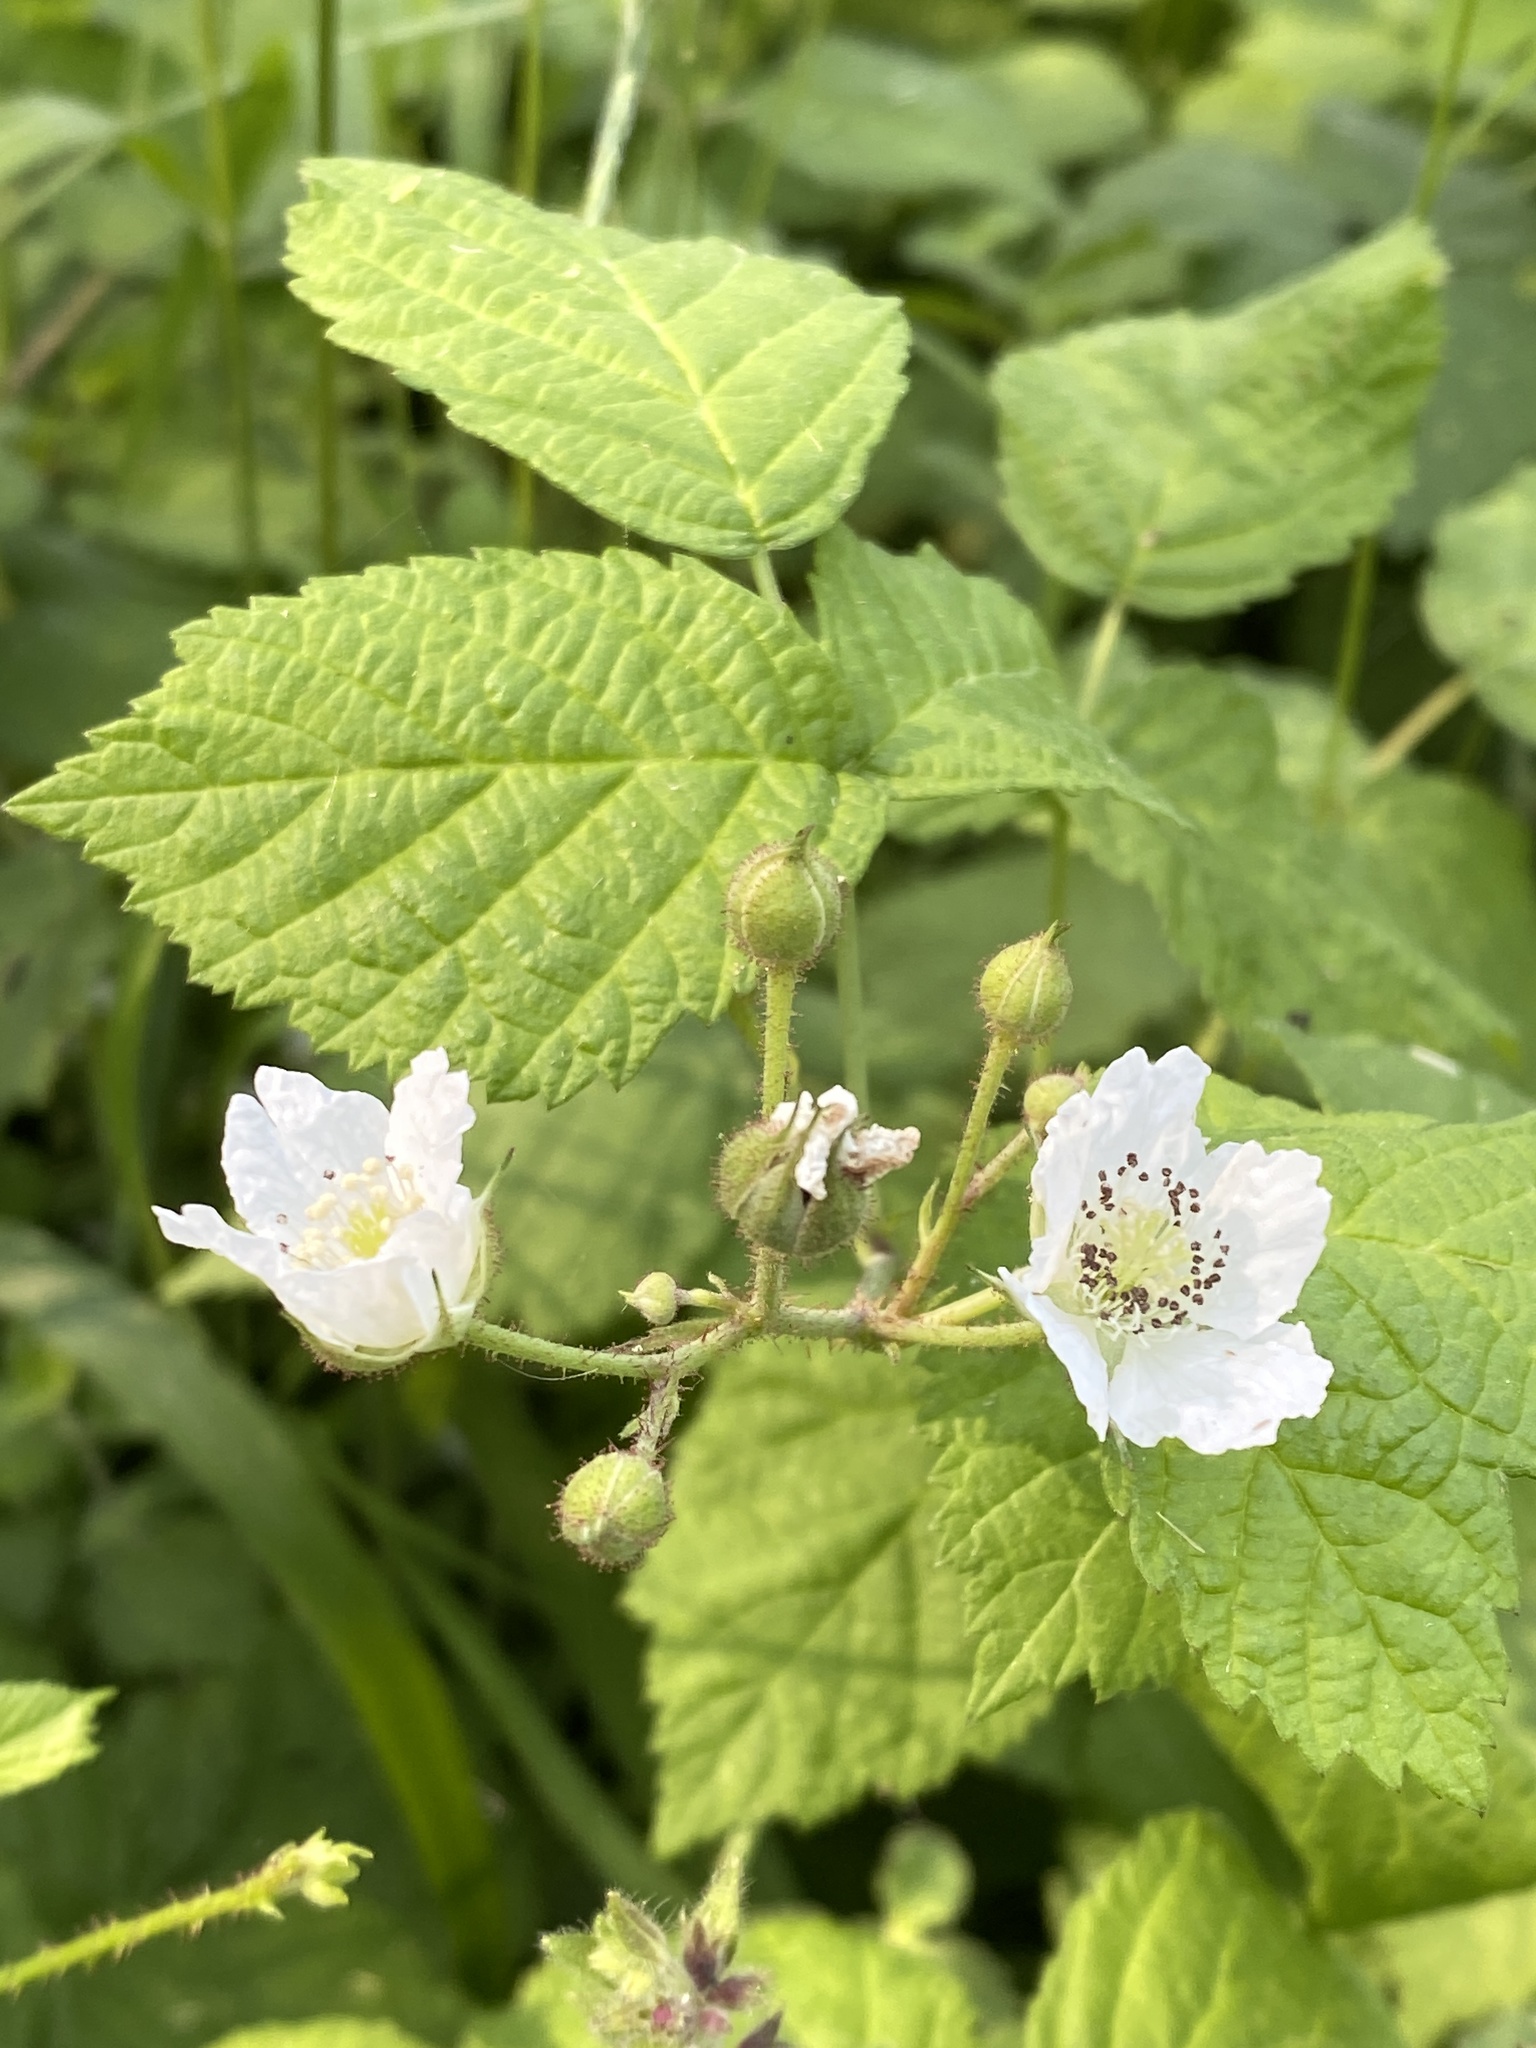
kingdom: Plantae
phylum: Tracheophyta
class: Magnoliopsida
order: Rosales
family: Rosaceae
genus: Rubus
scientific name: Rubus caesius
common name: Dewberry
